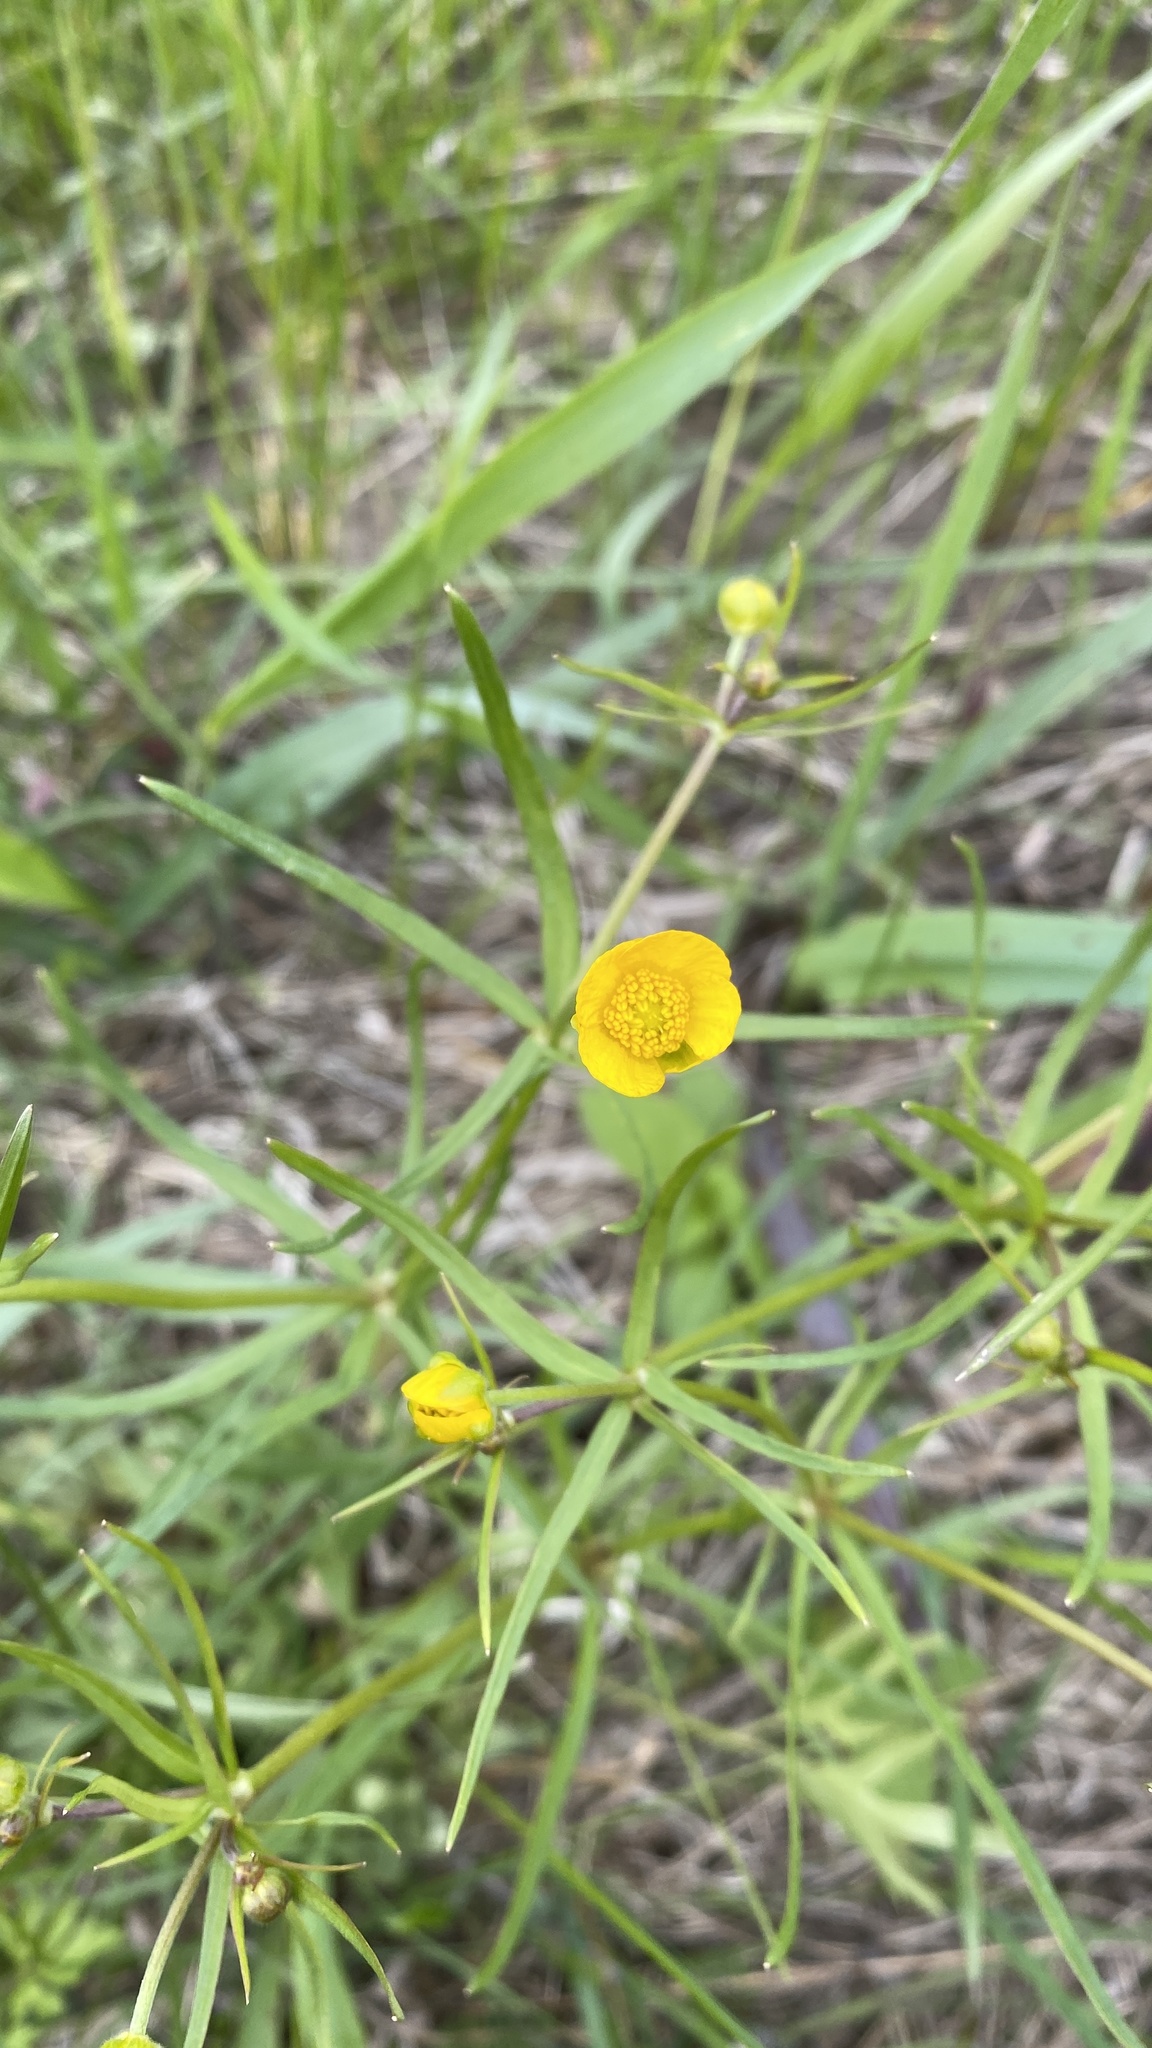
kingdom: Plantae
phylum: Tracheophyta
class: Magnoliopsida
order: Ranunculales
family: Ranunculaceae
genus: Ranunculus
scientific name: Ranunculus auricomus
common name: Goldilocks buttercup
